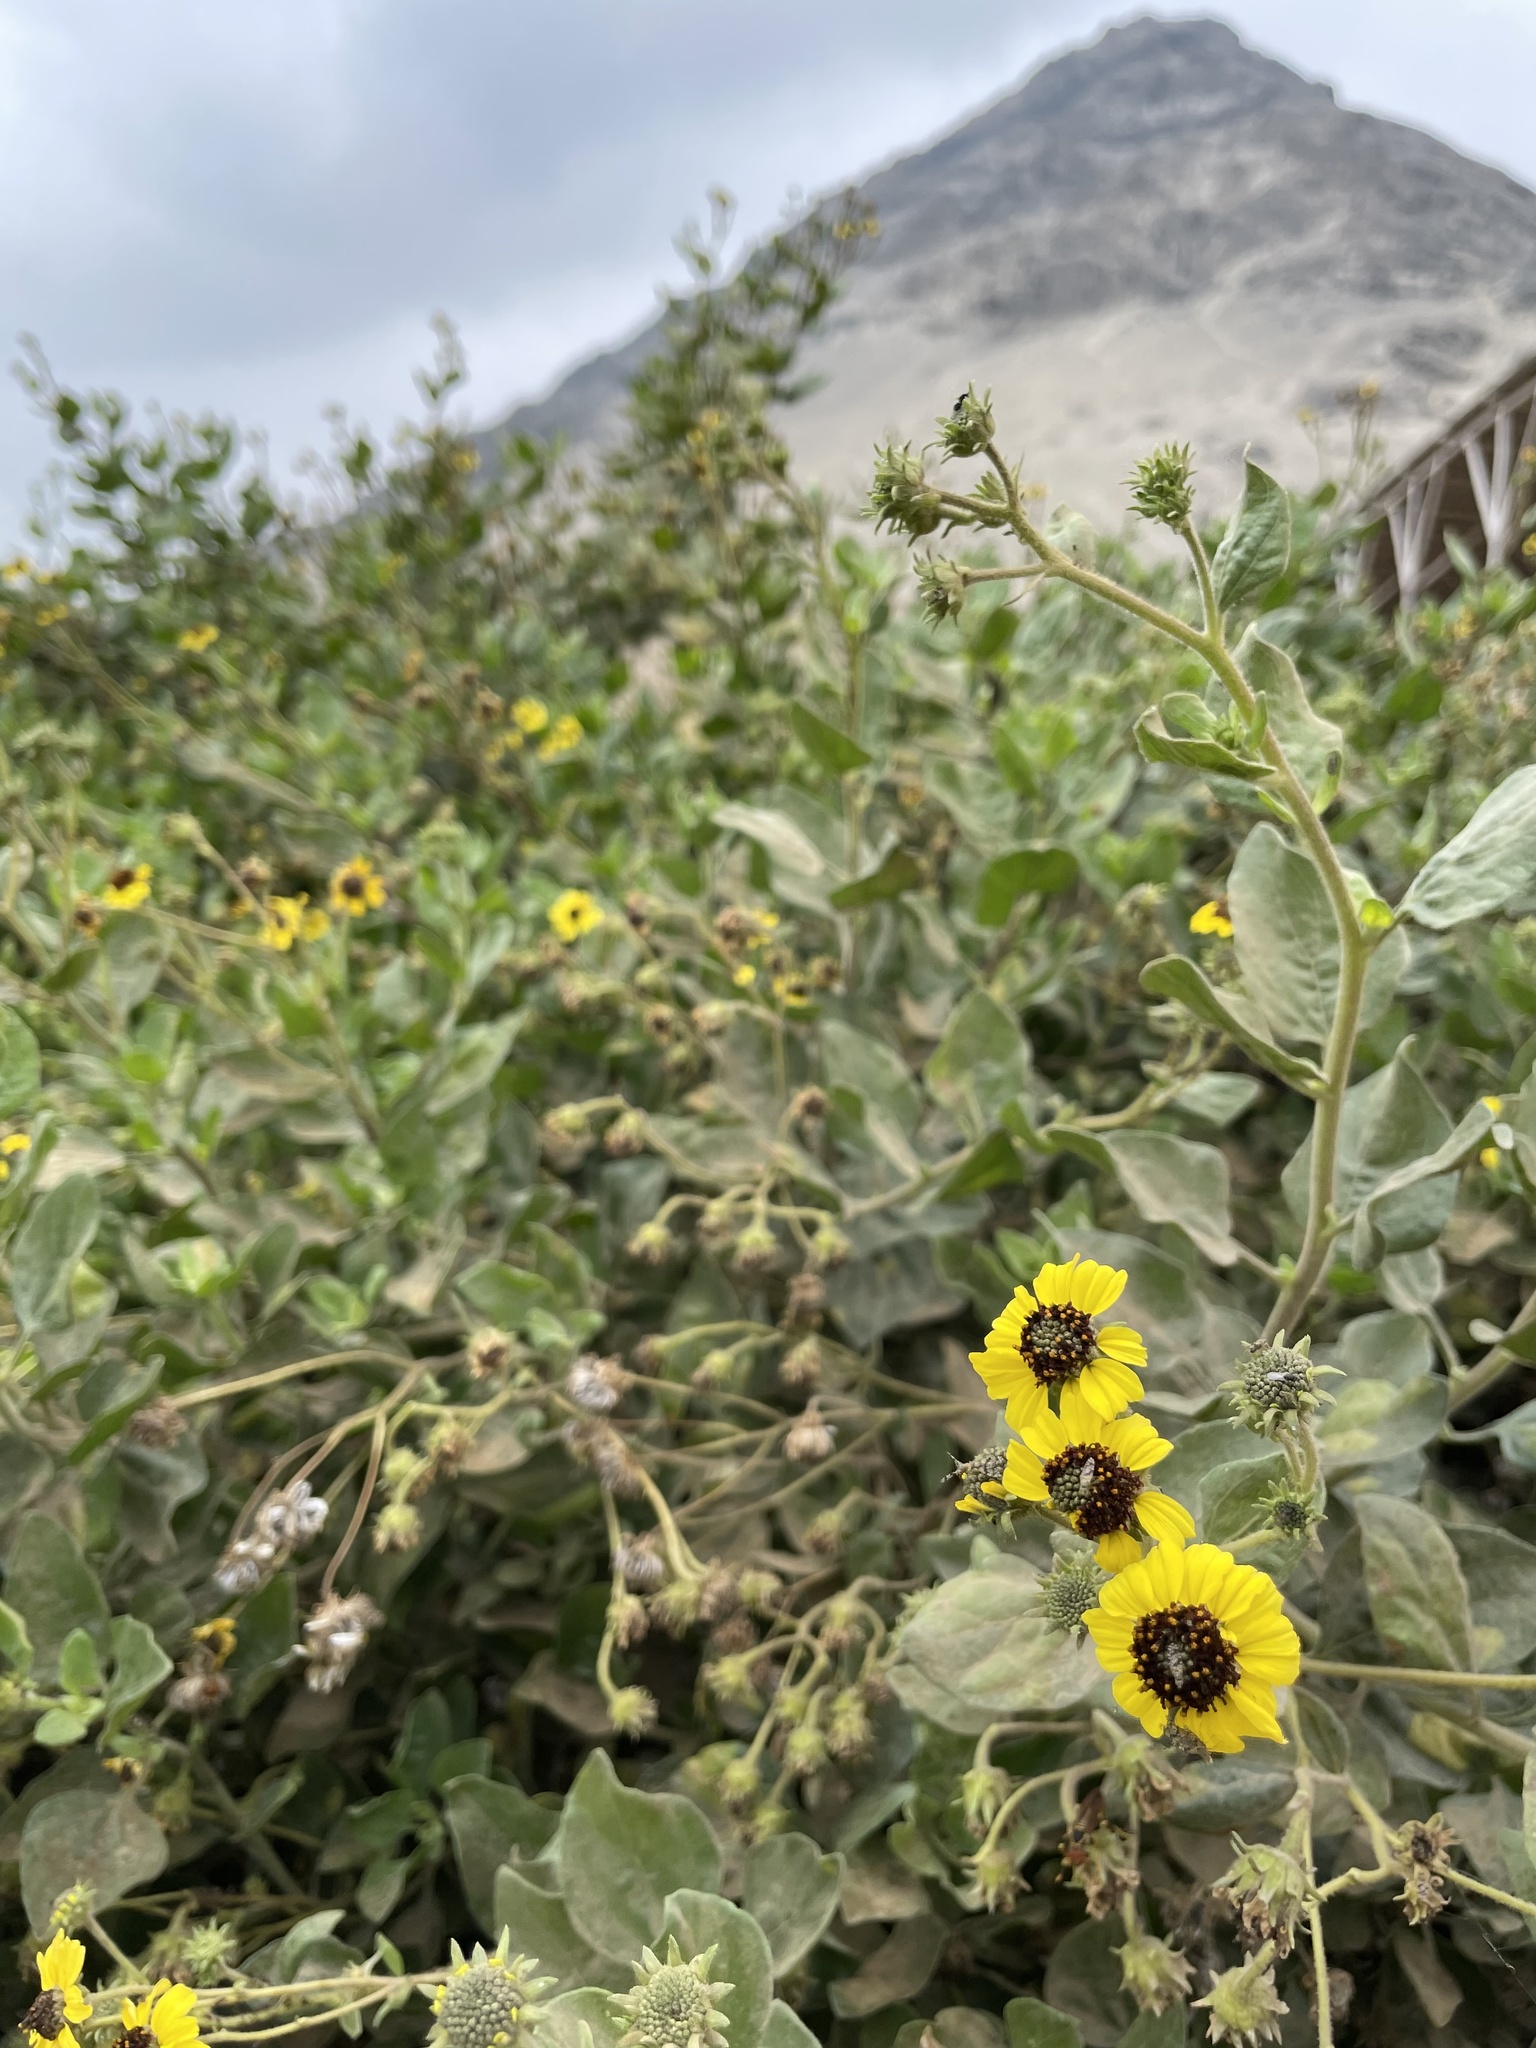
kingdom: Plantae
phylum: Tracheophyta
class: Magnoliopsida
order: Asterales
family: Asteraceae
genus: Encelia
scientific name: Encelia canescens
